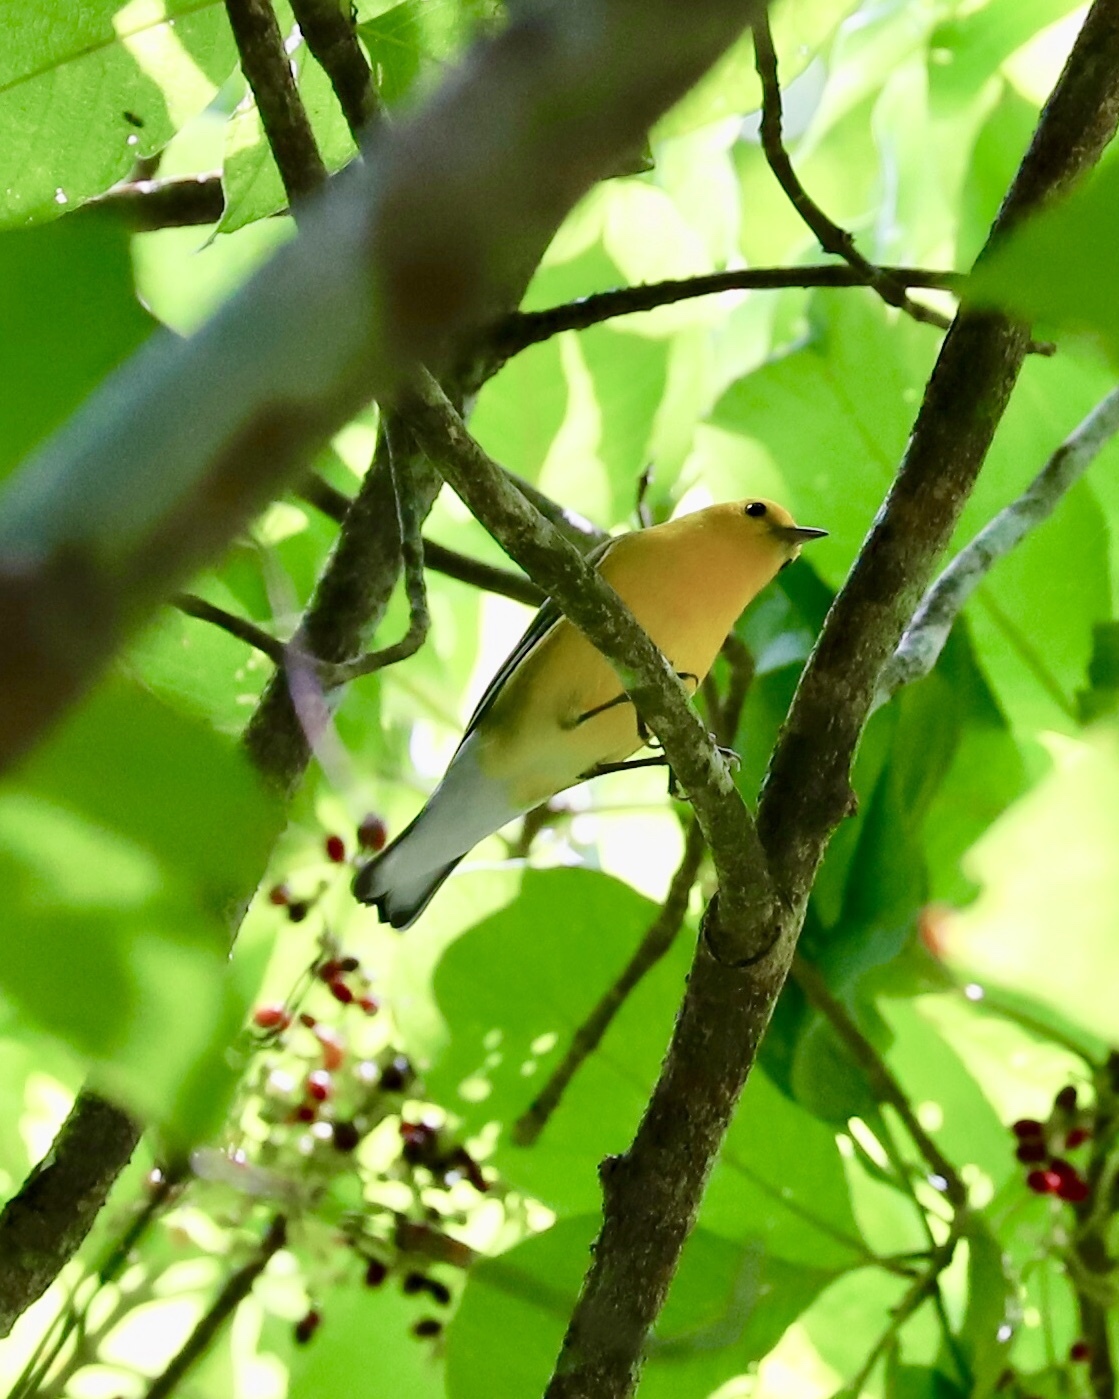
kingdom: Animalia
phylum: Chordata
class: Aves
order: Passeriformes
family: Parulidae
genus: Protonotaria
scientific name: Protonotaria citrea
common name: Prothonotary warbler
